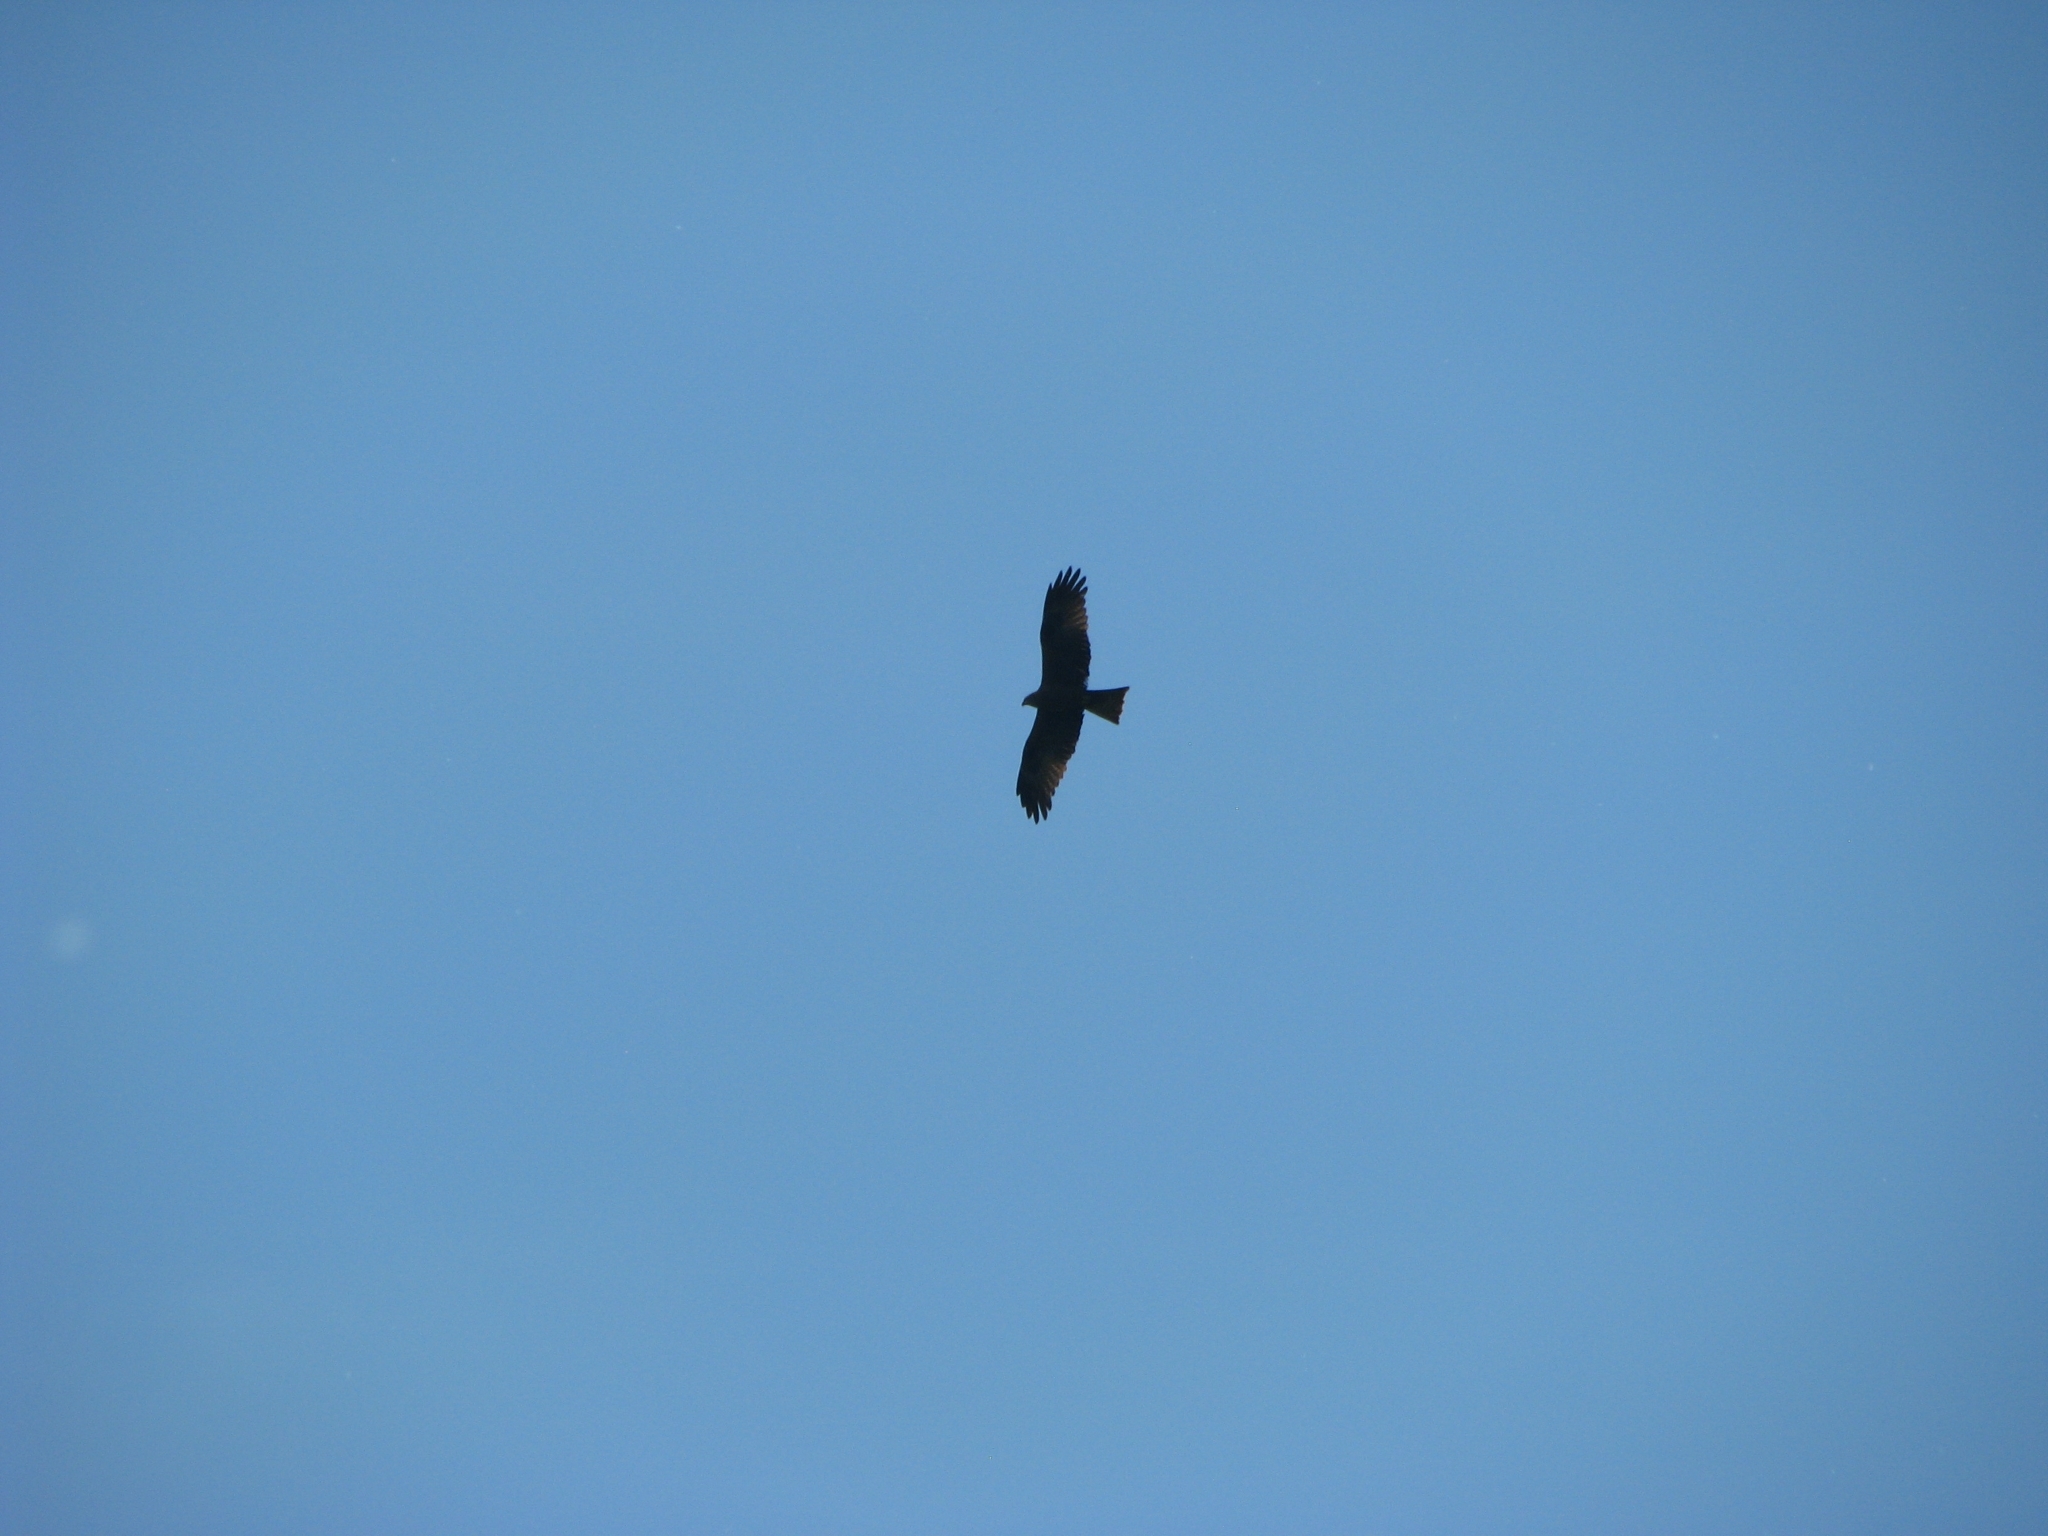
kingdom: Animalia
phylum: Chordata
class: Aves
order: Accipitriformes
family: Accipitridae
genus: Milvus
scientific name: Milvus migrans
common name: Black kite
